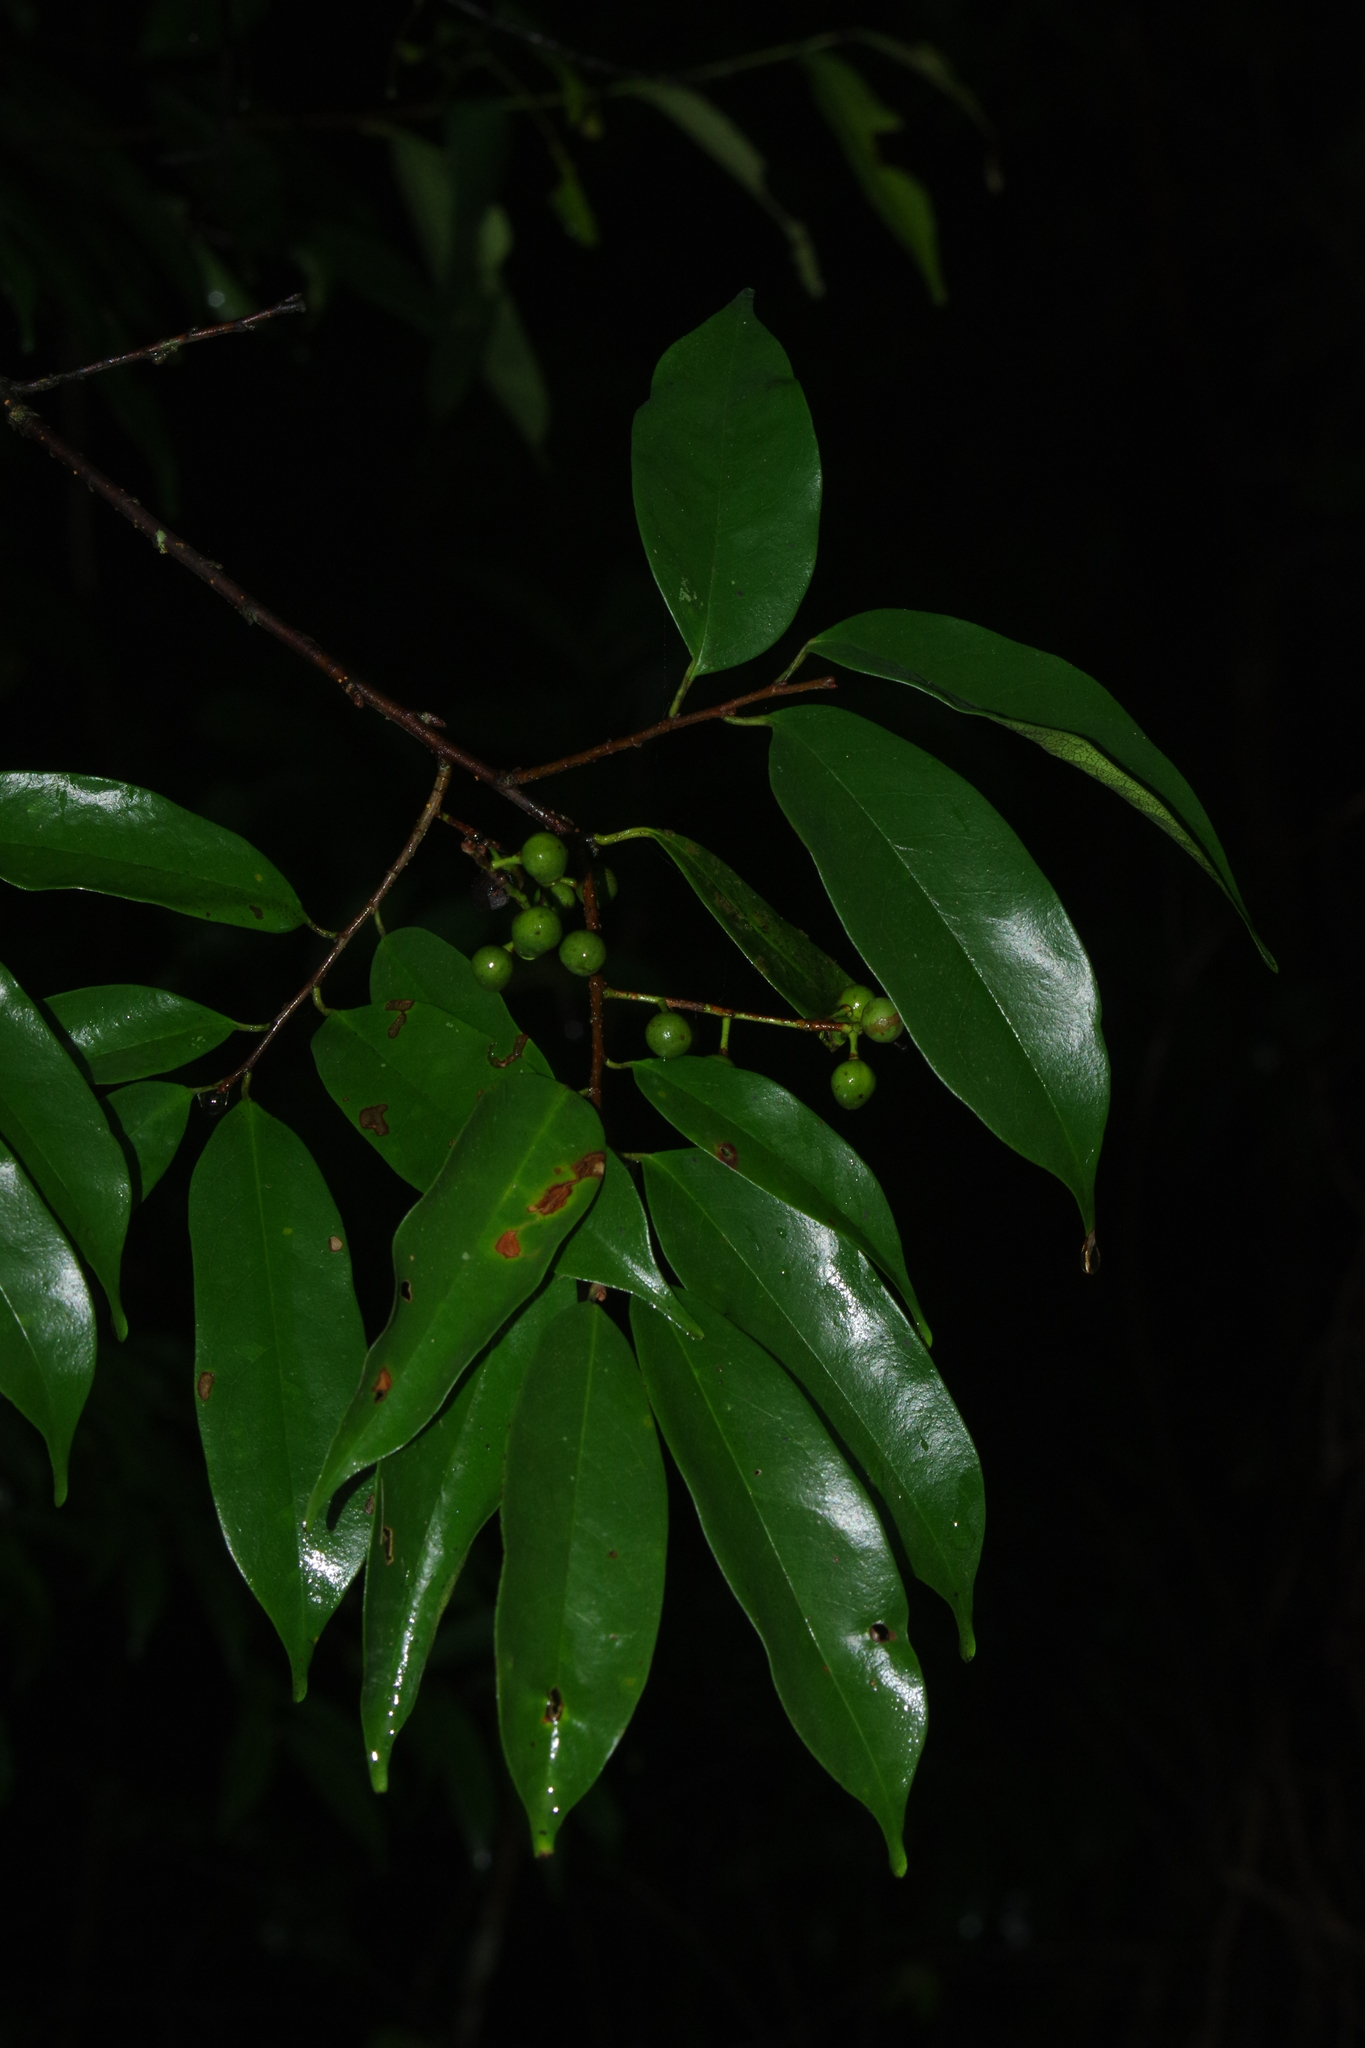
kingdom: Plantae
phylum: Tracheophyta
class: Magnoliopsida
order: Rosales
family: Rosaceae
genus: Prunus
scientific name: Prunus phaeosticta
